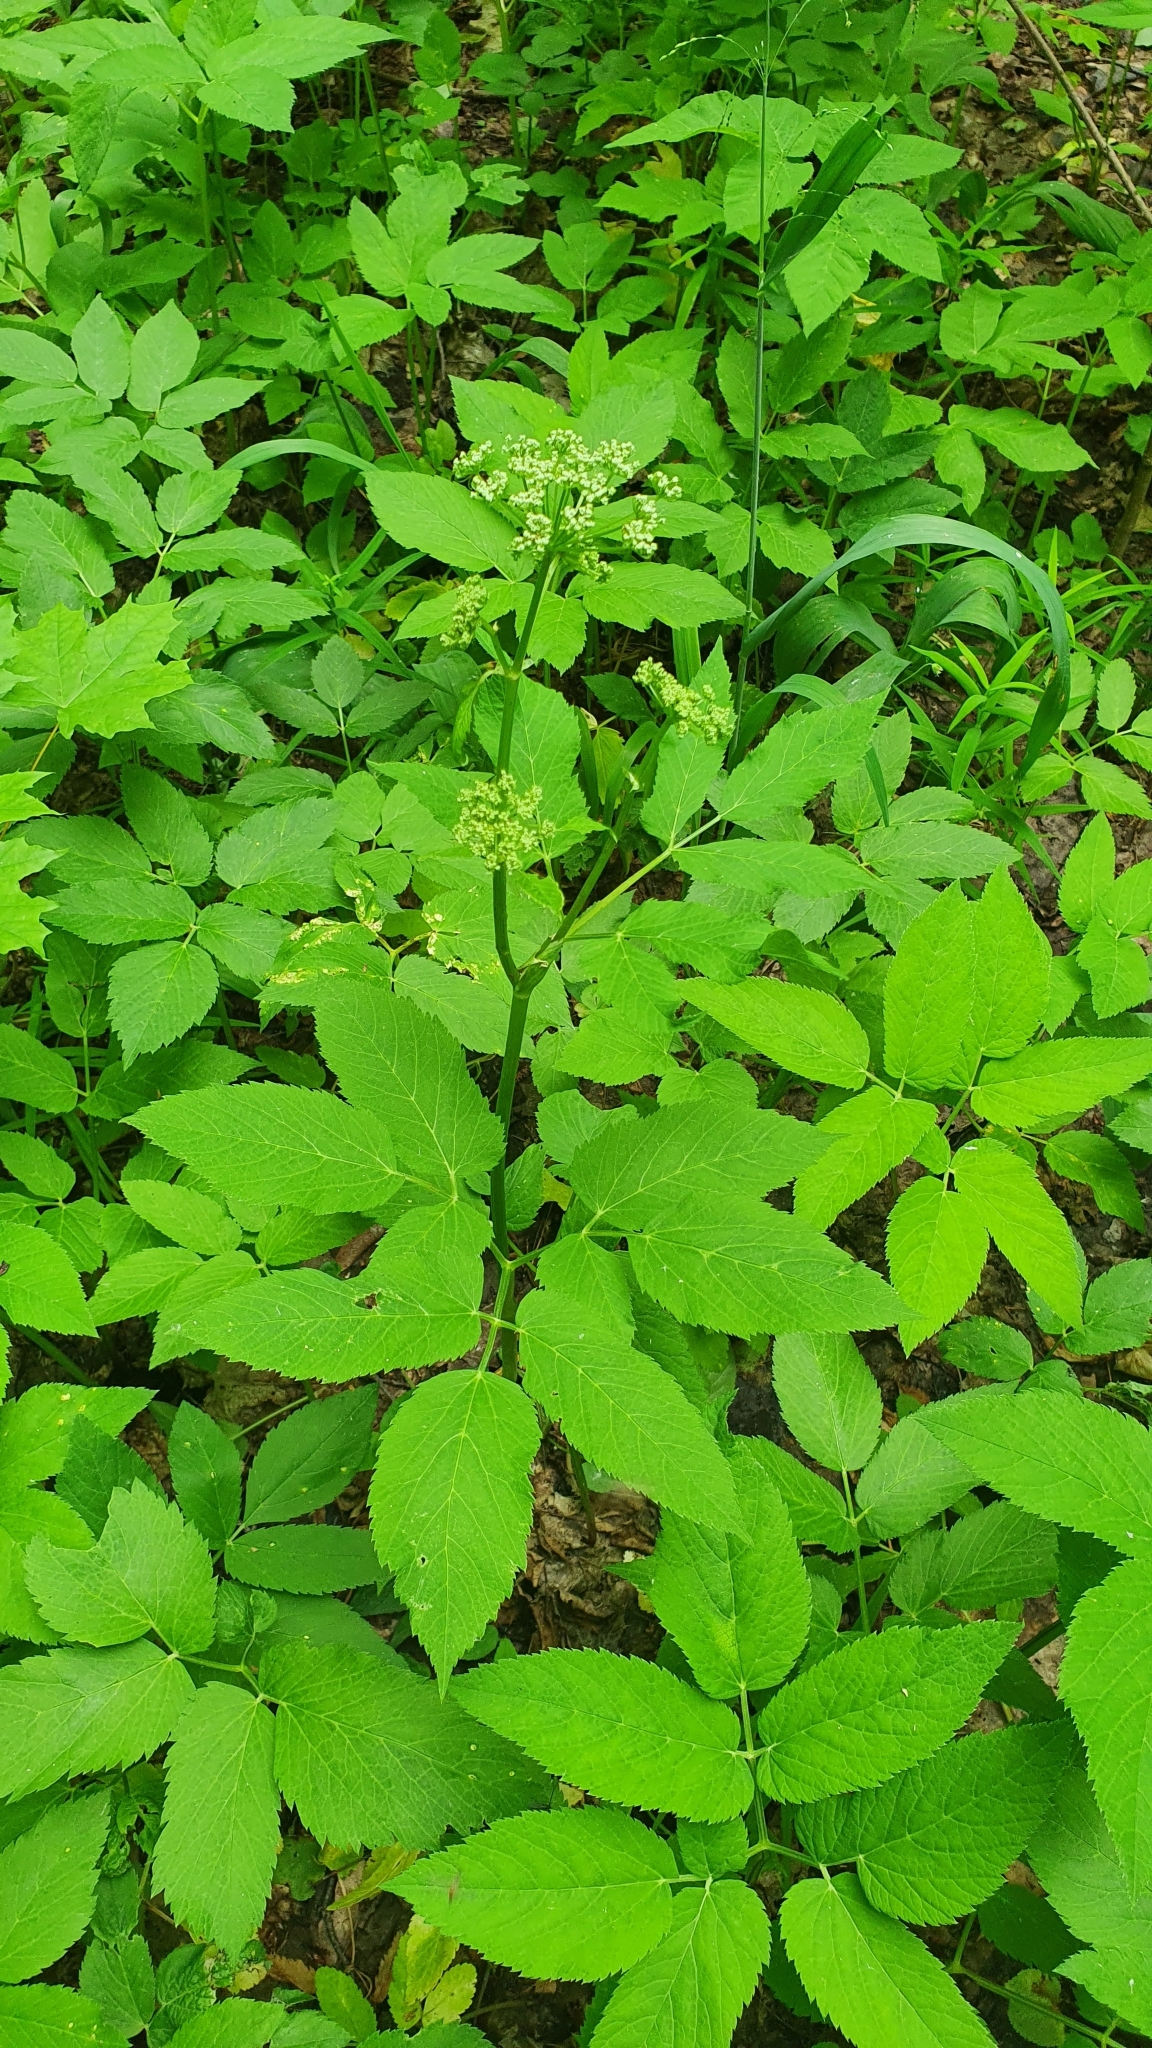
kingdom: Plantae
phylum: Tracheophyta
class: Magnoliopsida
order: Apiales
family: Apiaceae
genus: Aegopodium
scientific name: Aegopodium podagraria
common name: Ground-elder
